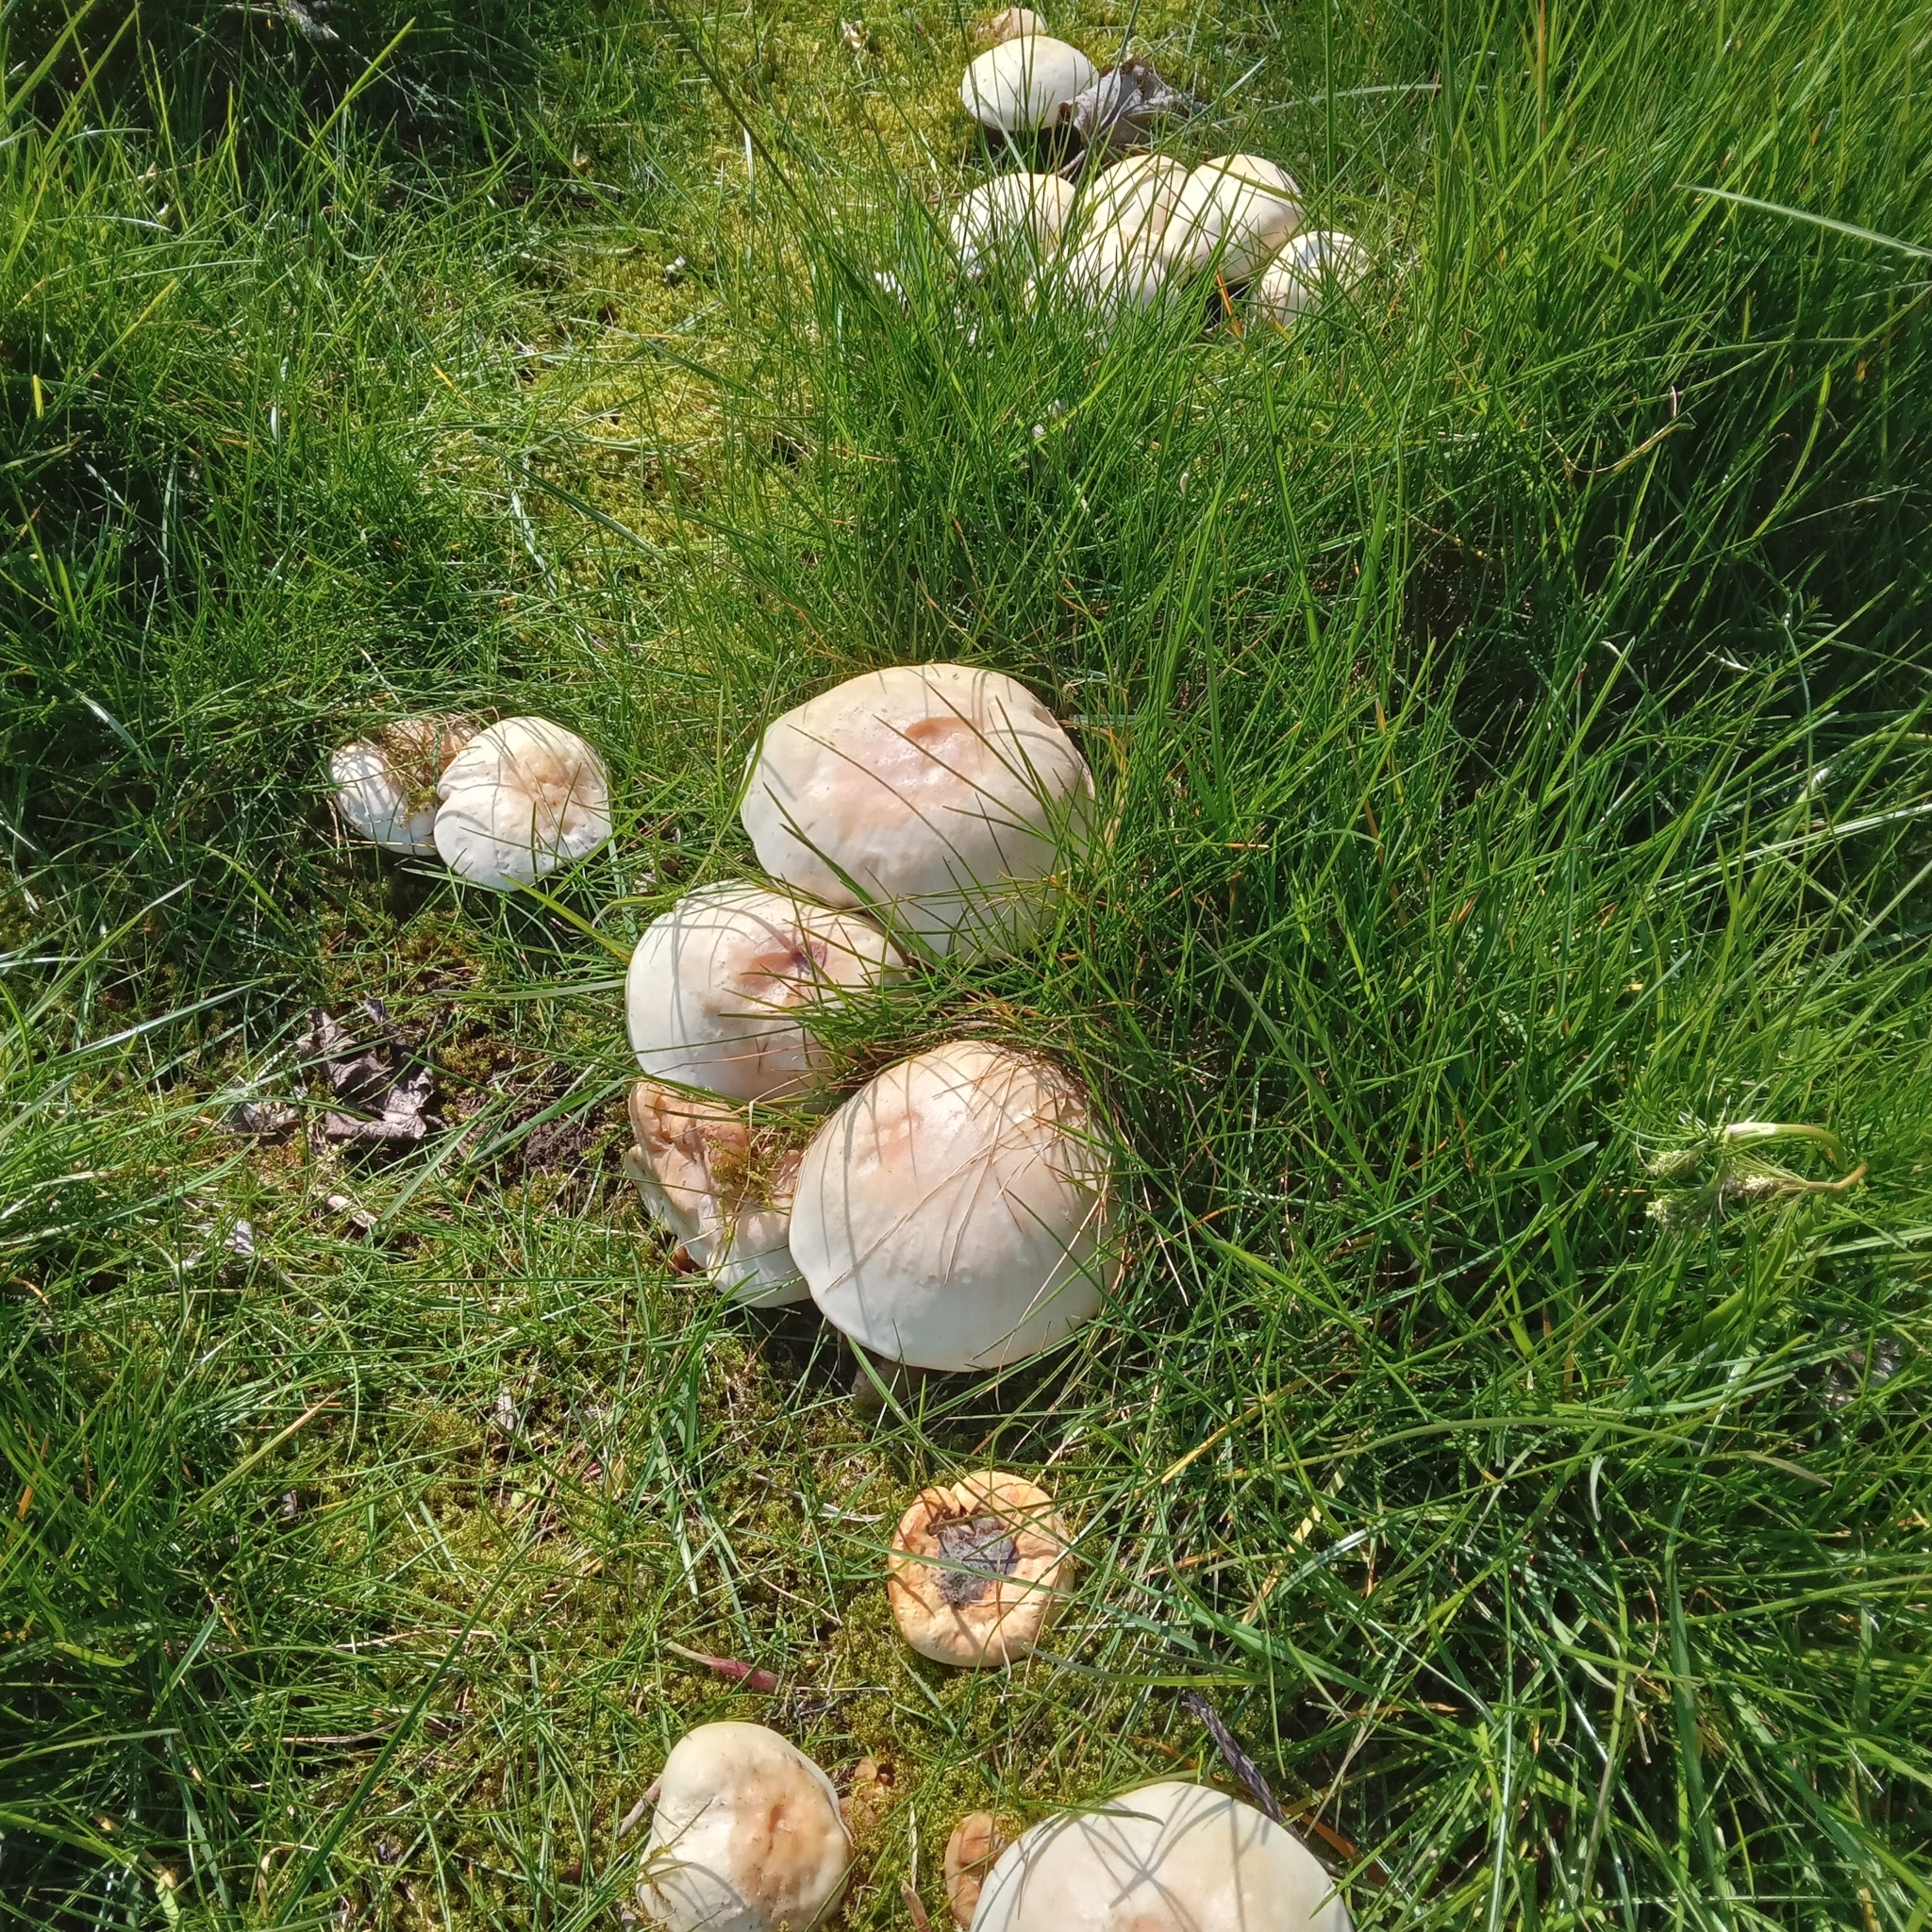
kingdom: Fungi
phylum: Basidiomycota
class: Agaricomycetes
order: Agaricales
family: Lyophyllaceae
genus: Calocybe
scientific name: Calocybe gambosa
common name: St. george's mushroom
